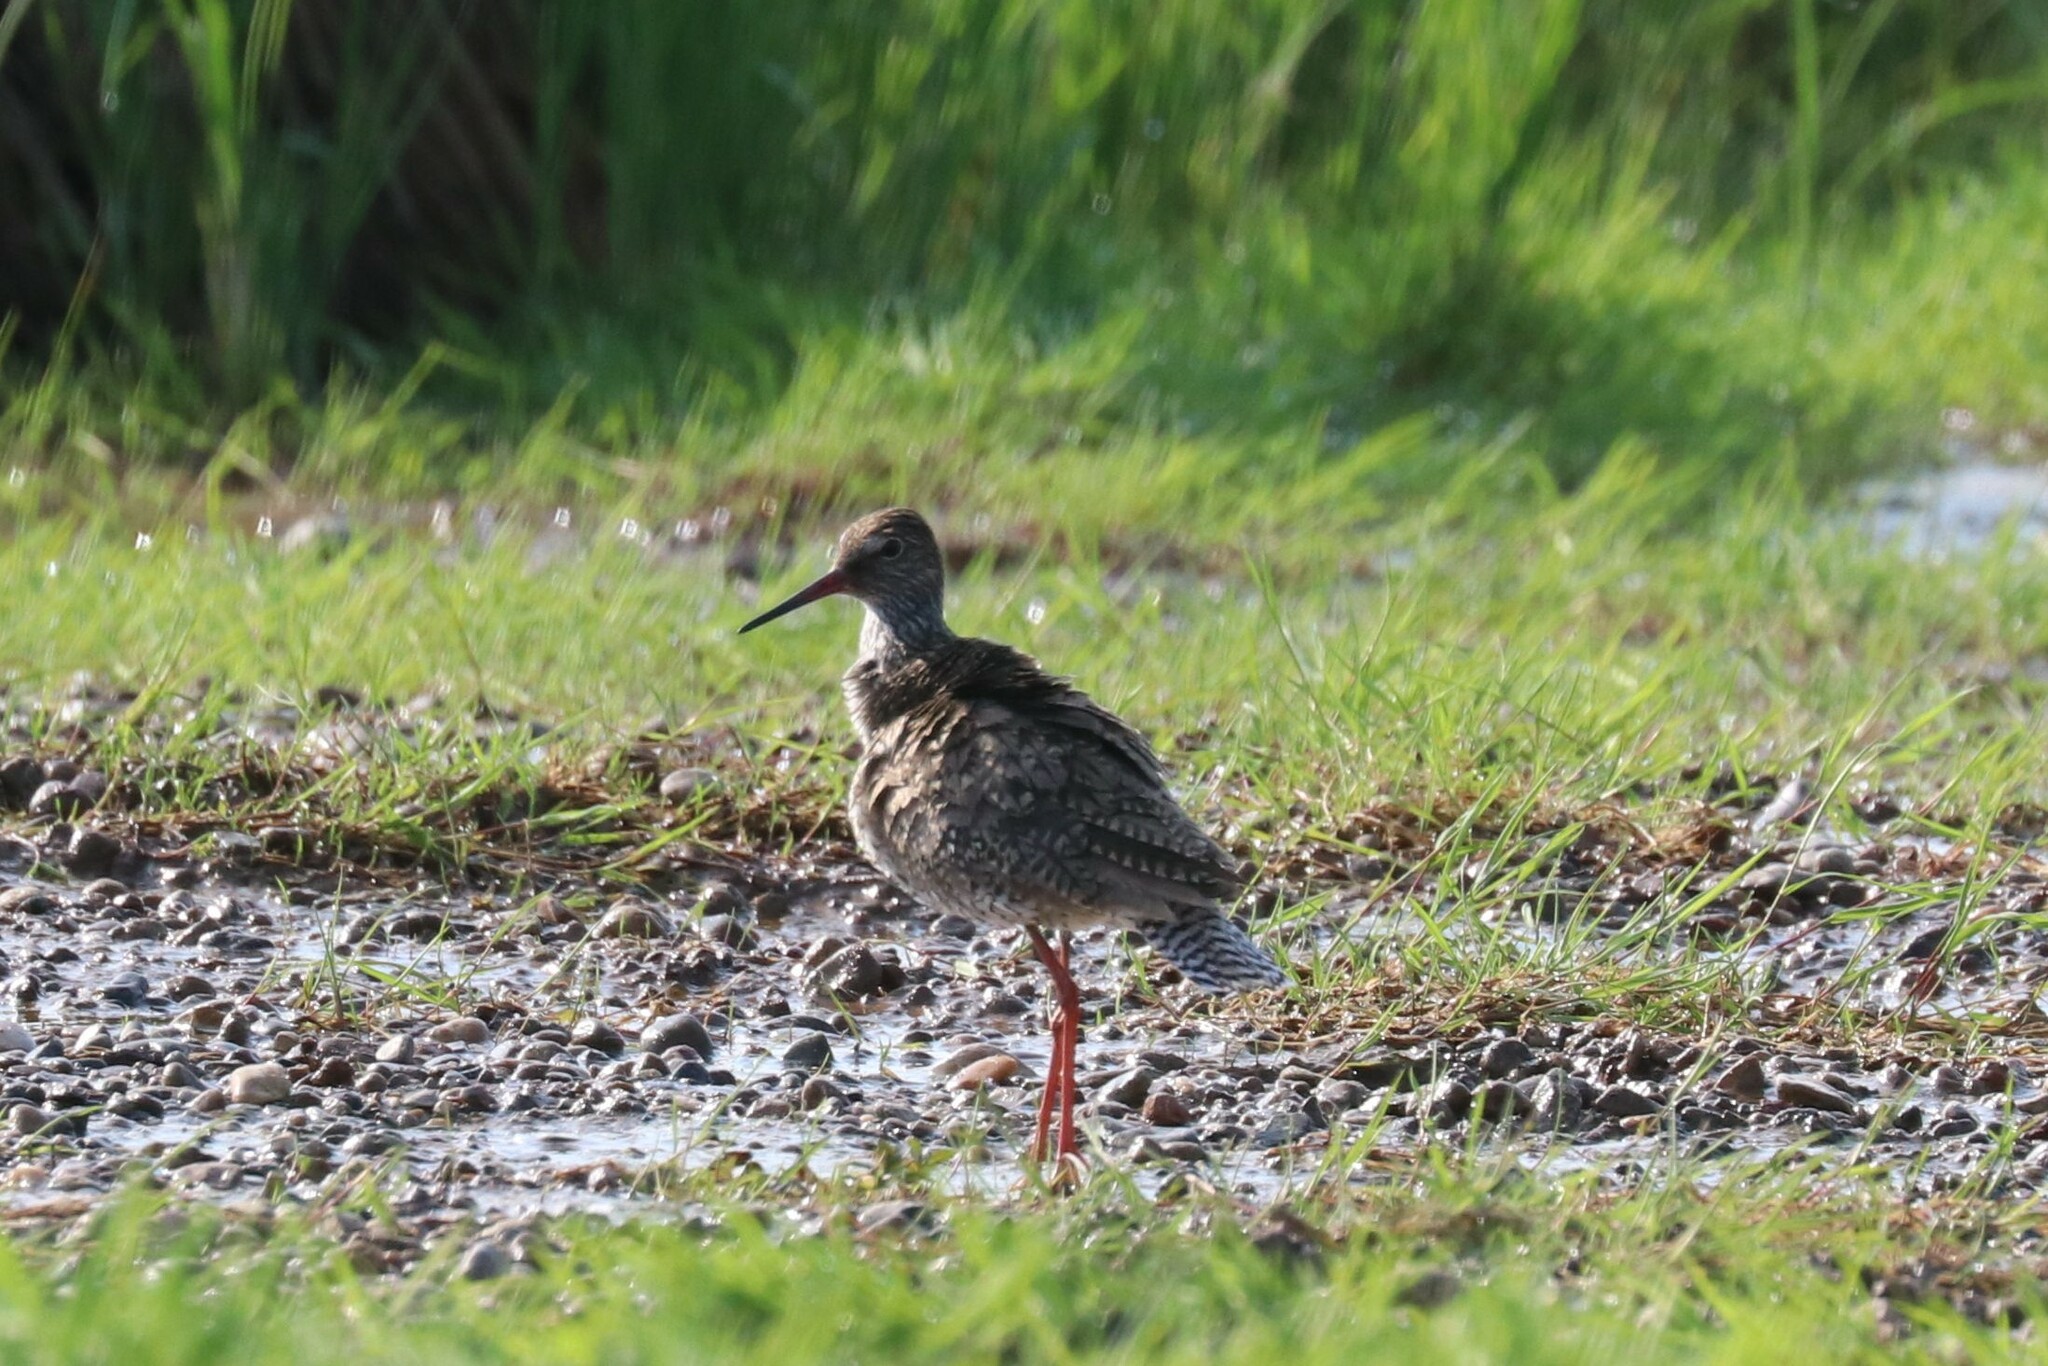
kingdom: Animalia
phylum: Chordata
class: Aves
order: Charadriiformes
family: Scolopacidae
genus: Tringa
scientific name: Tringa totanus
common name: Common redshank
